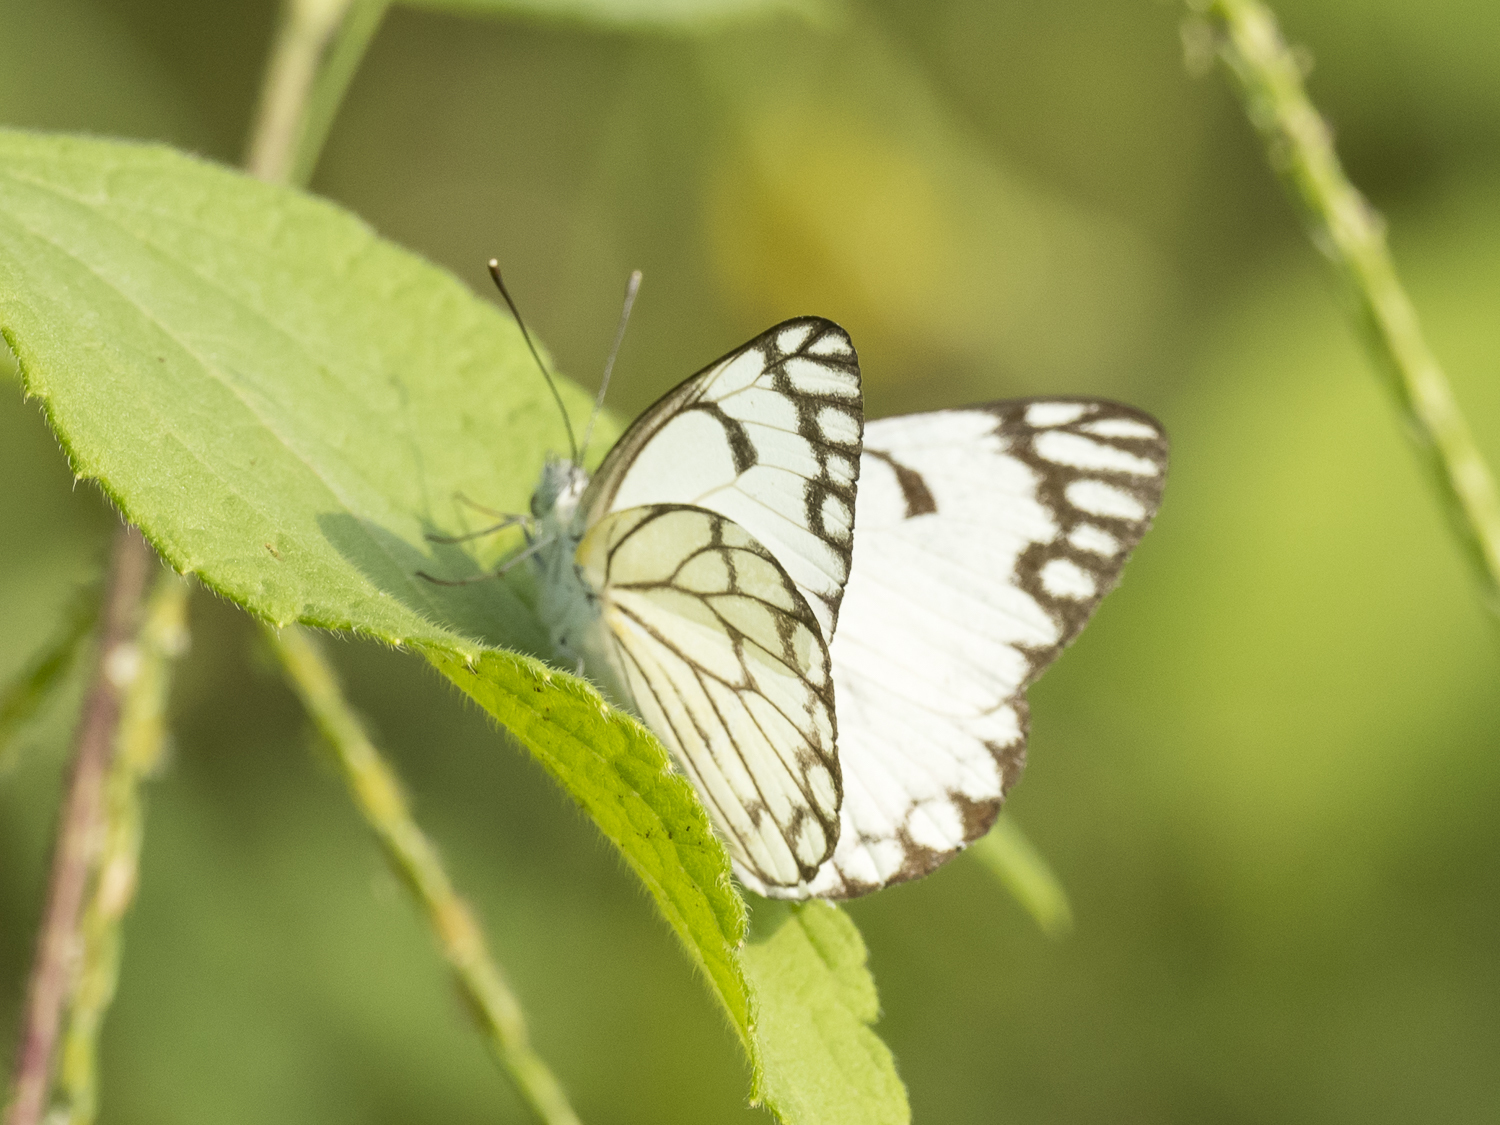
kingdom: Animalia
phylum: Arthropoda
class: Insecta
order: Lepidoptera
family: Pieridae
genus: Belenois
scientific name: Belenois aurota
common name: Brown-veined white
